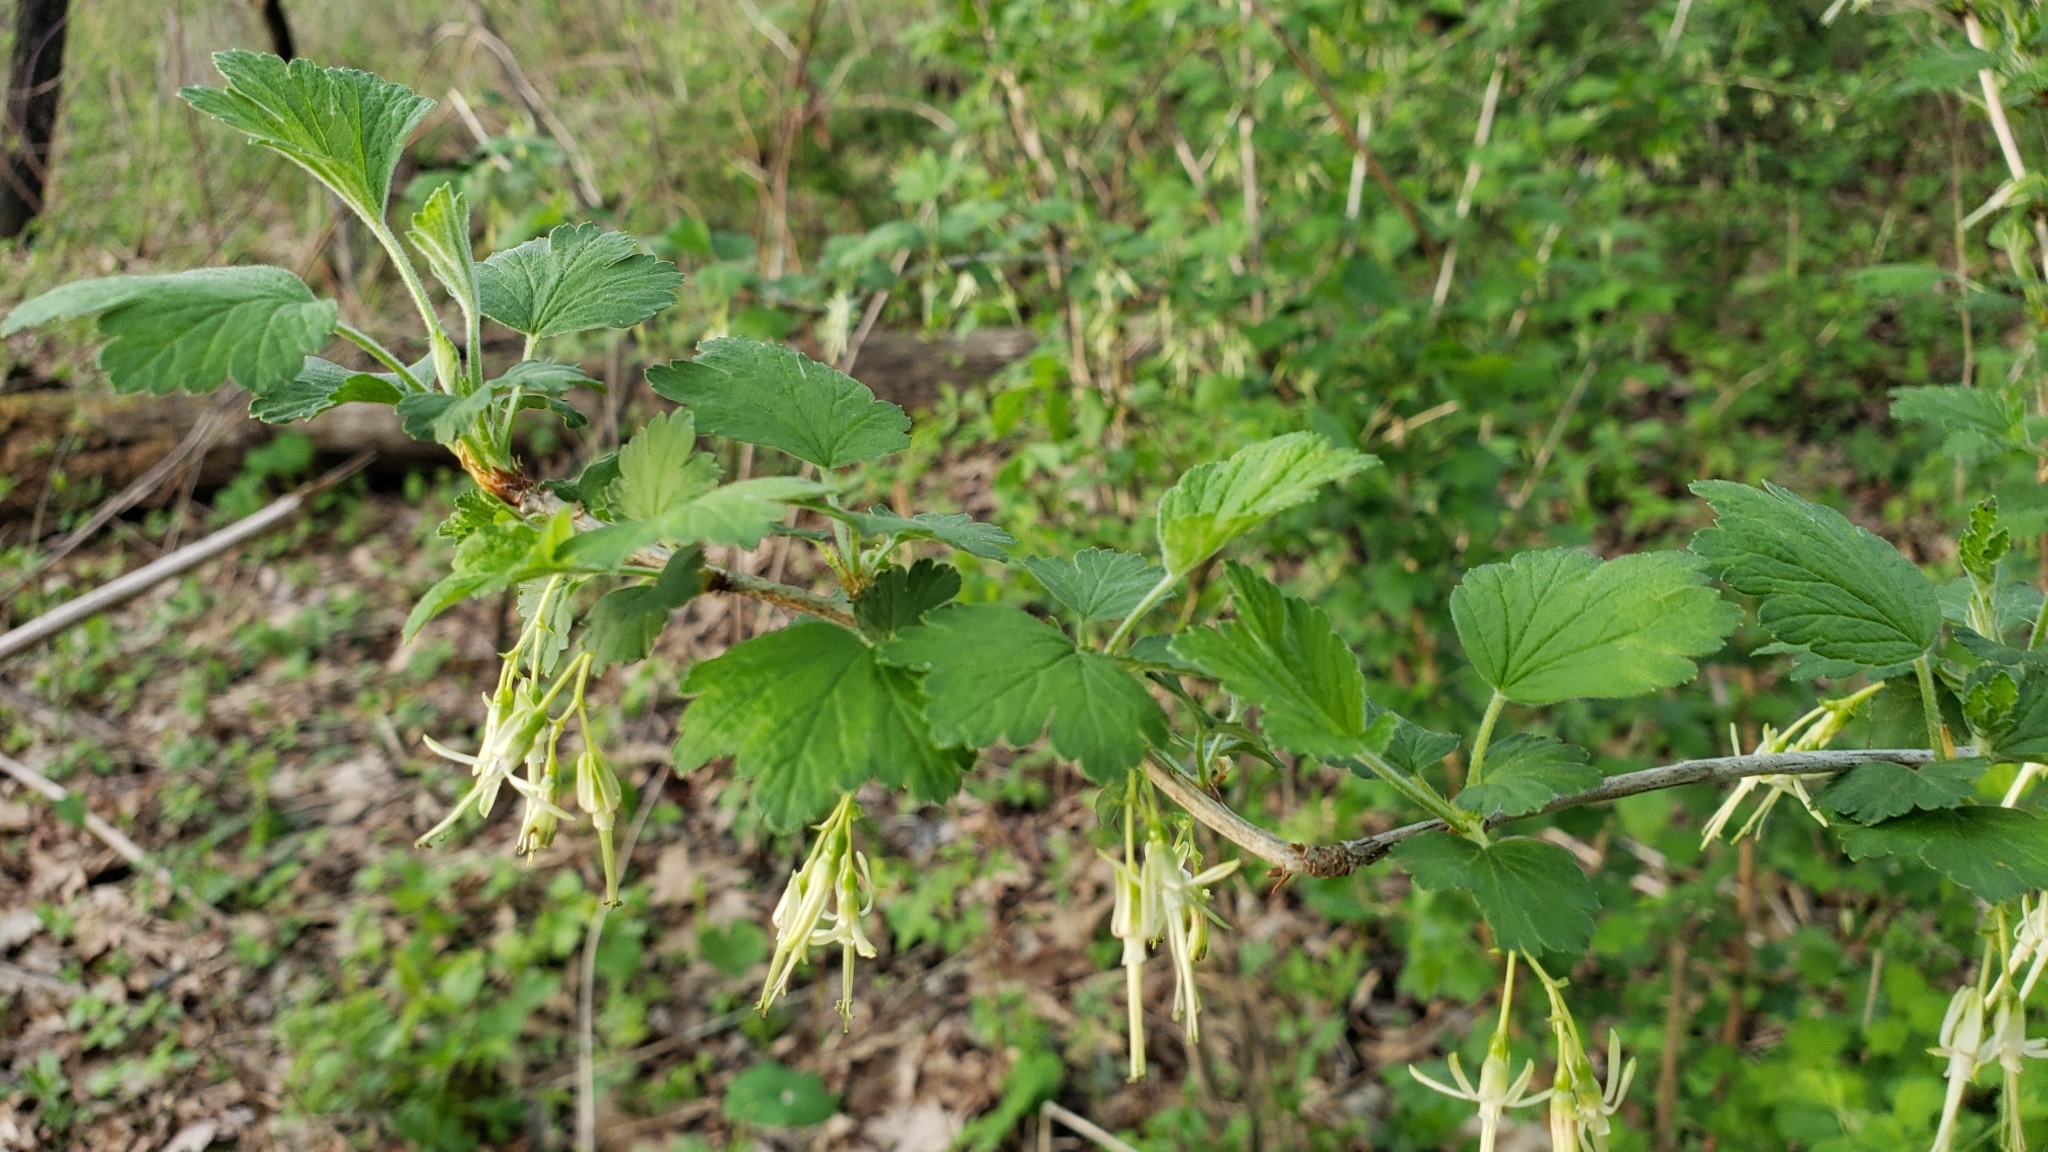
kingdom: Plantae
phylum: Tracheophyta
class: Magnoliopsida
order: Saxifragales
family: Grossulariaceae
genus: Ribes
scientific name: Ribes missouriense
